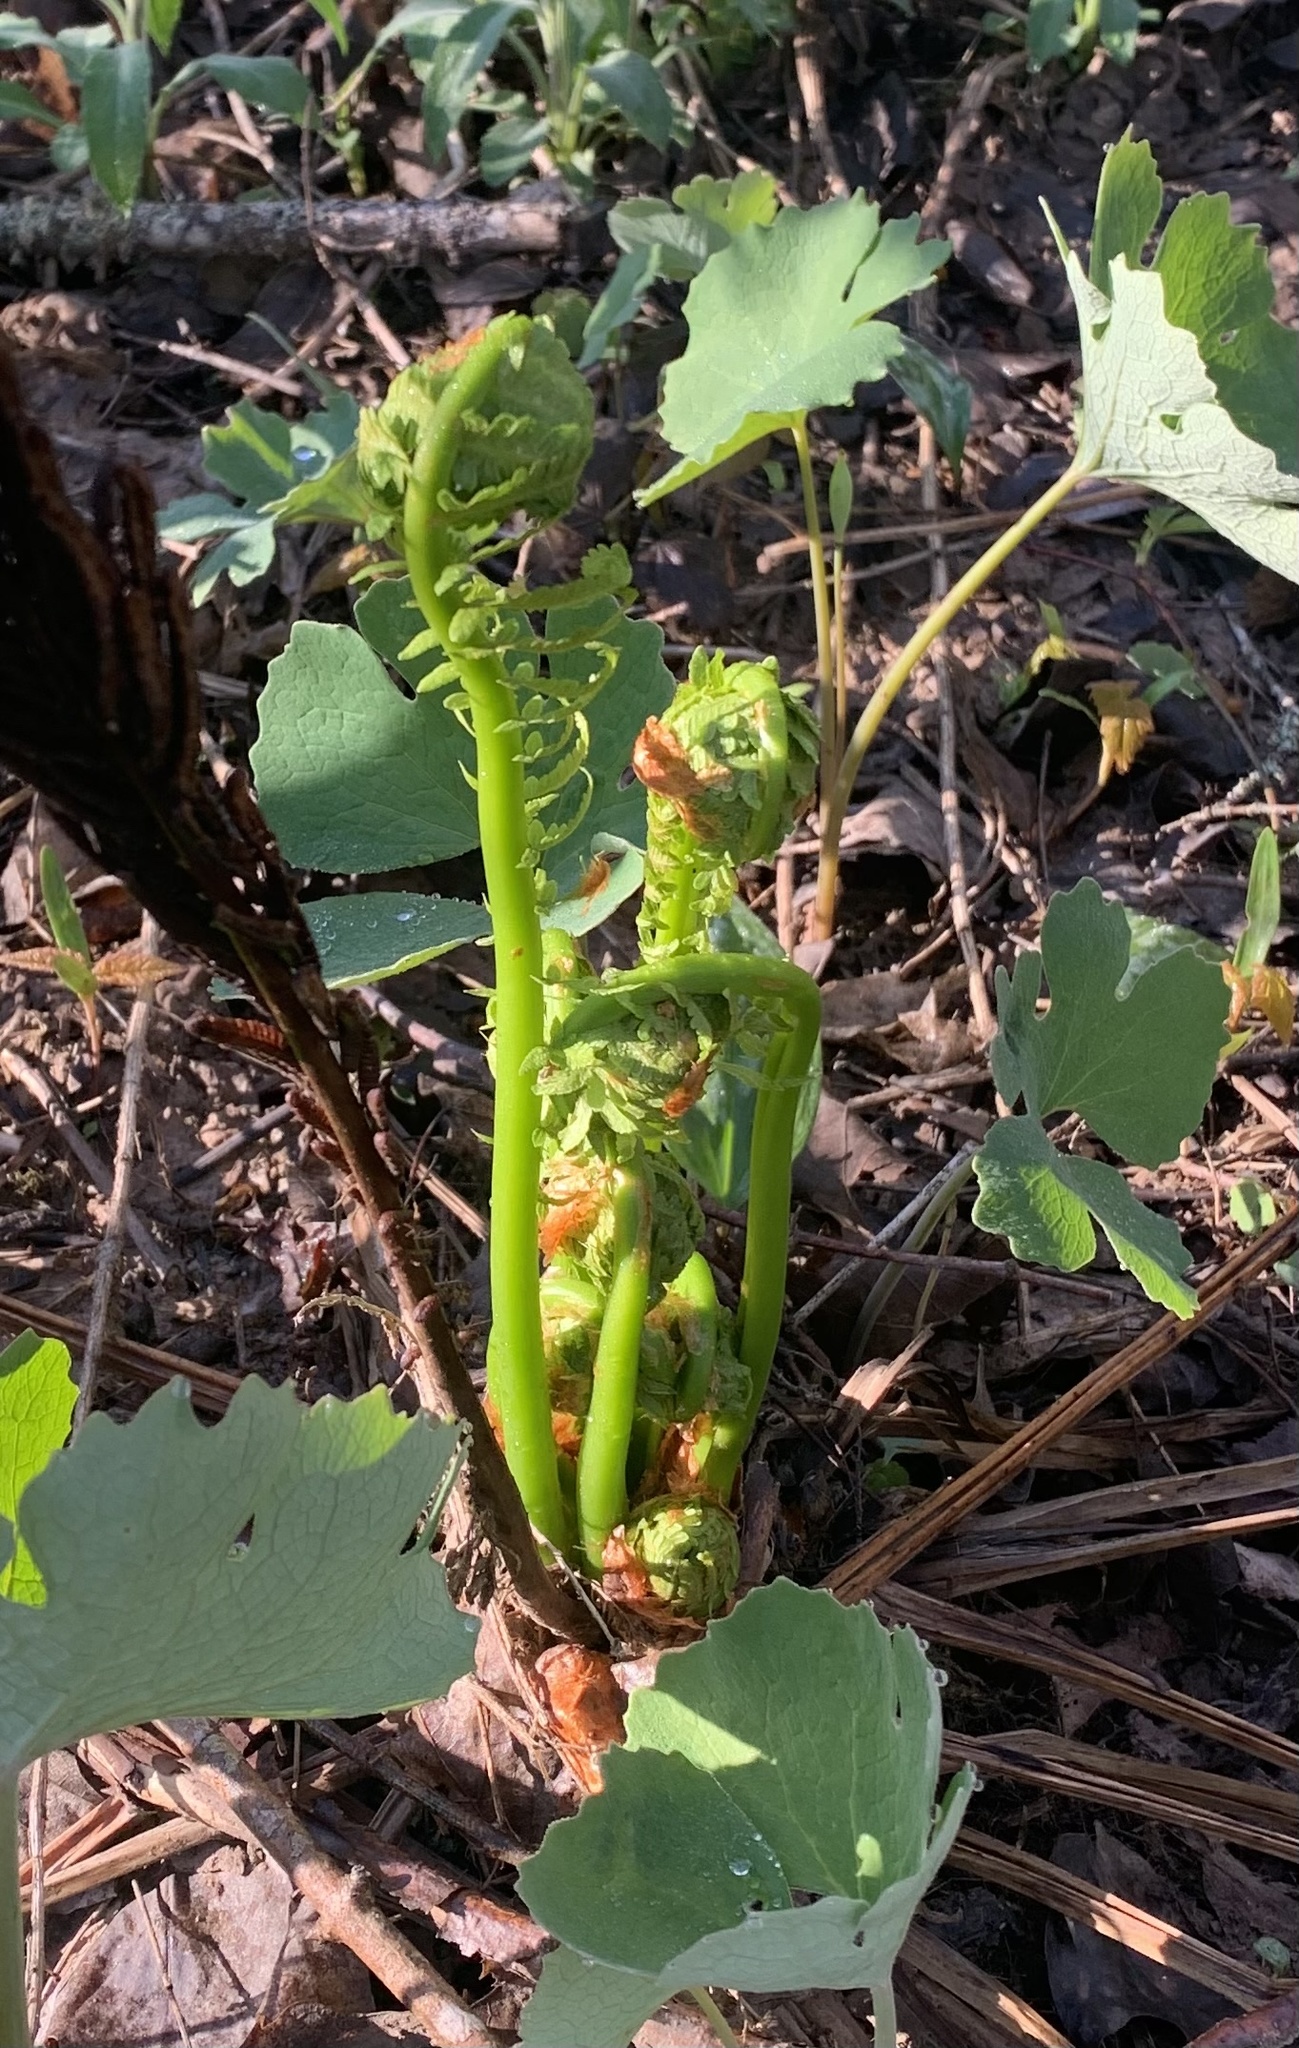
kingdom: Plantae
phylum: Tracheophyta
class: Polypodiopsida
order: Polypodiales
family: Onocleaceae
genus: Matteuccia
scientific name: Matteuccia struthiopteris
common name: Ostrich fern
